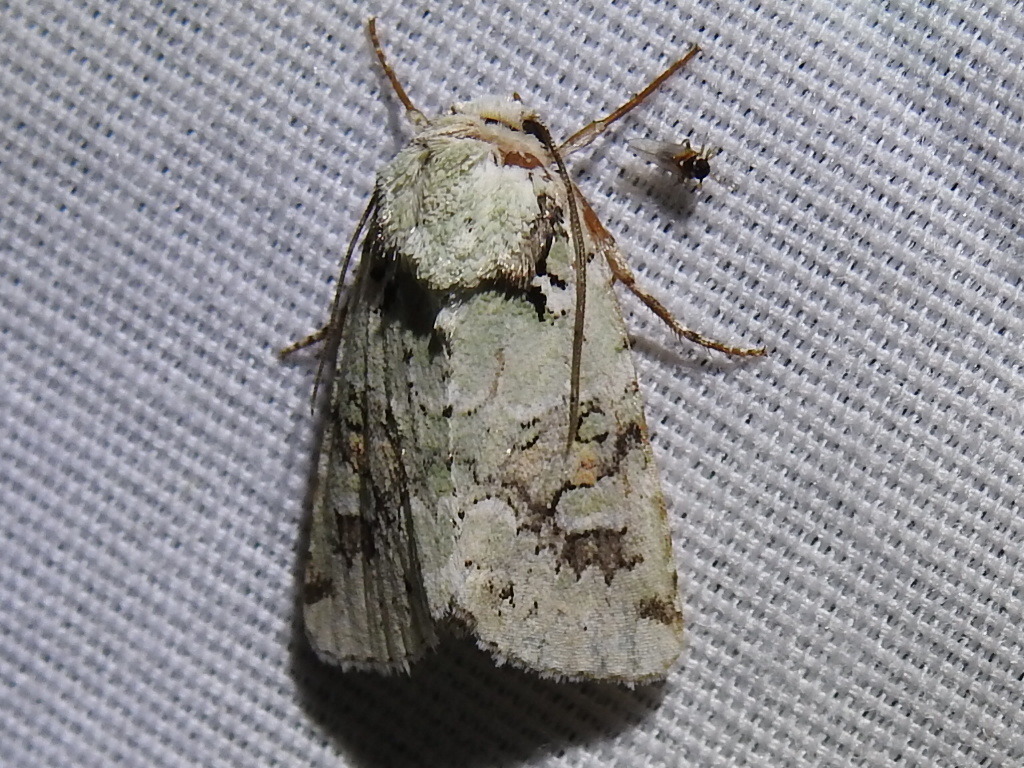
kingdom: Animalia
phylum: Arthropoda
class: Insecta
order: Lepidoptera
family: Noctuidae
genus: Lacinipolia
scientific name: Lacinipolia laudabilis
